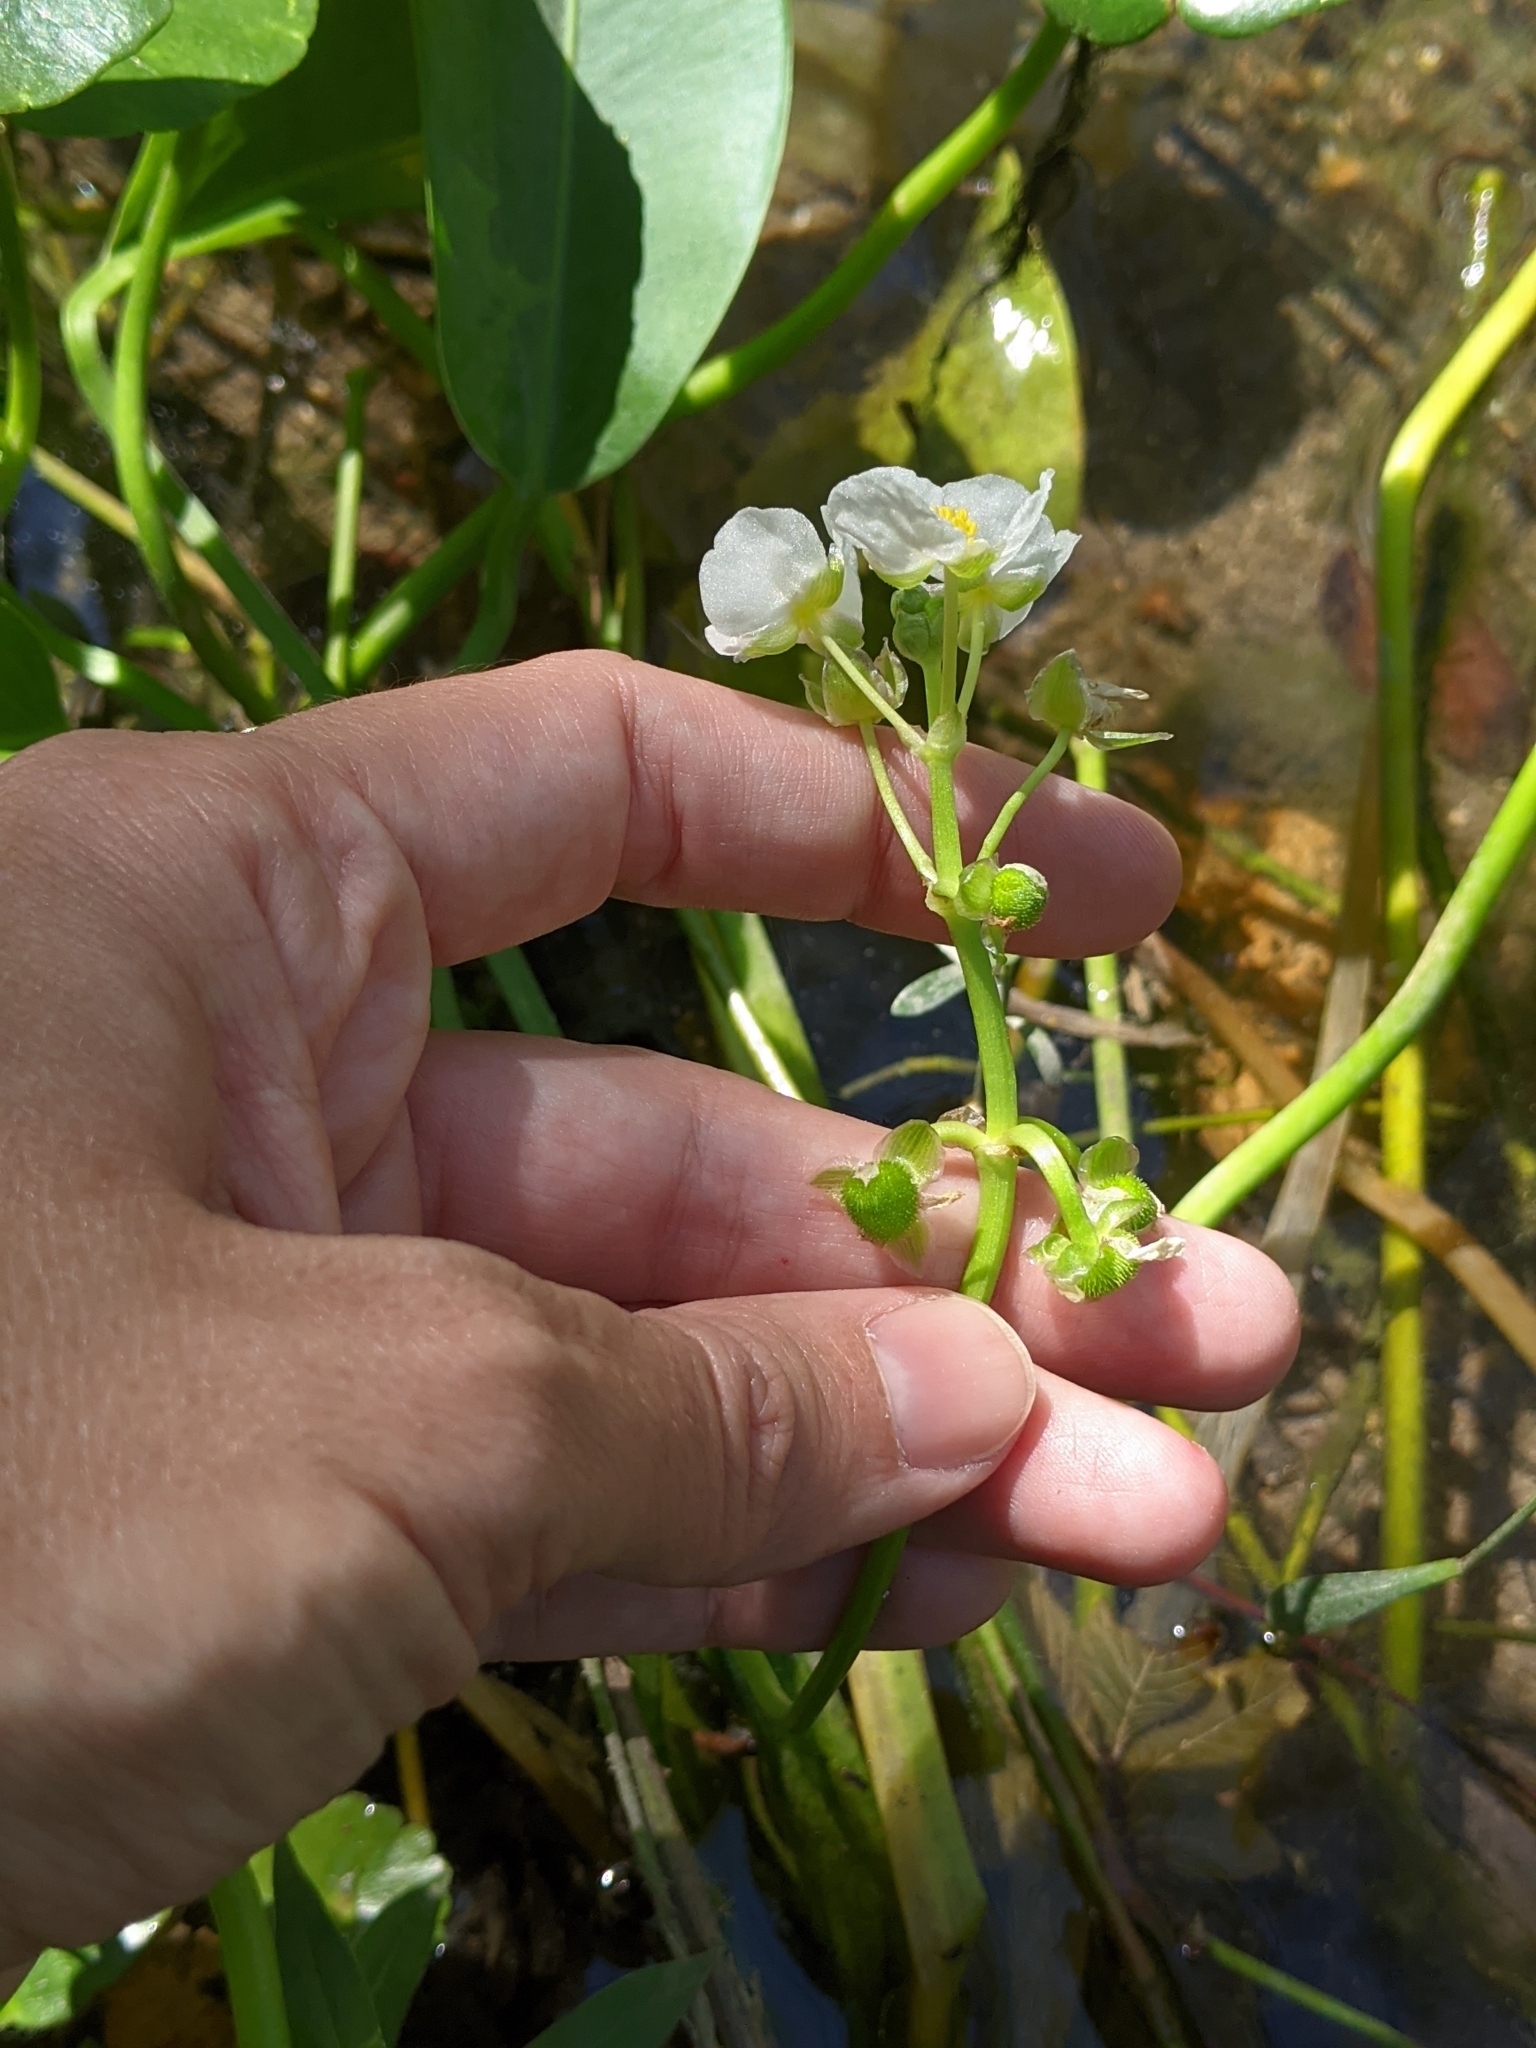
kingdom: Plantae
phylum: Tracheophyta
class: Liliopsida
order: Alismatales
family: Alismataceae
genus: Sagittaria
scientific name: Sagittaria platyphylla
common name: Broad-leaf arrowhead
